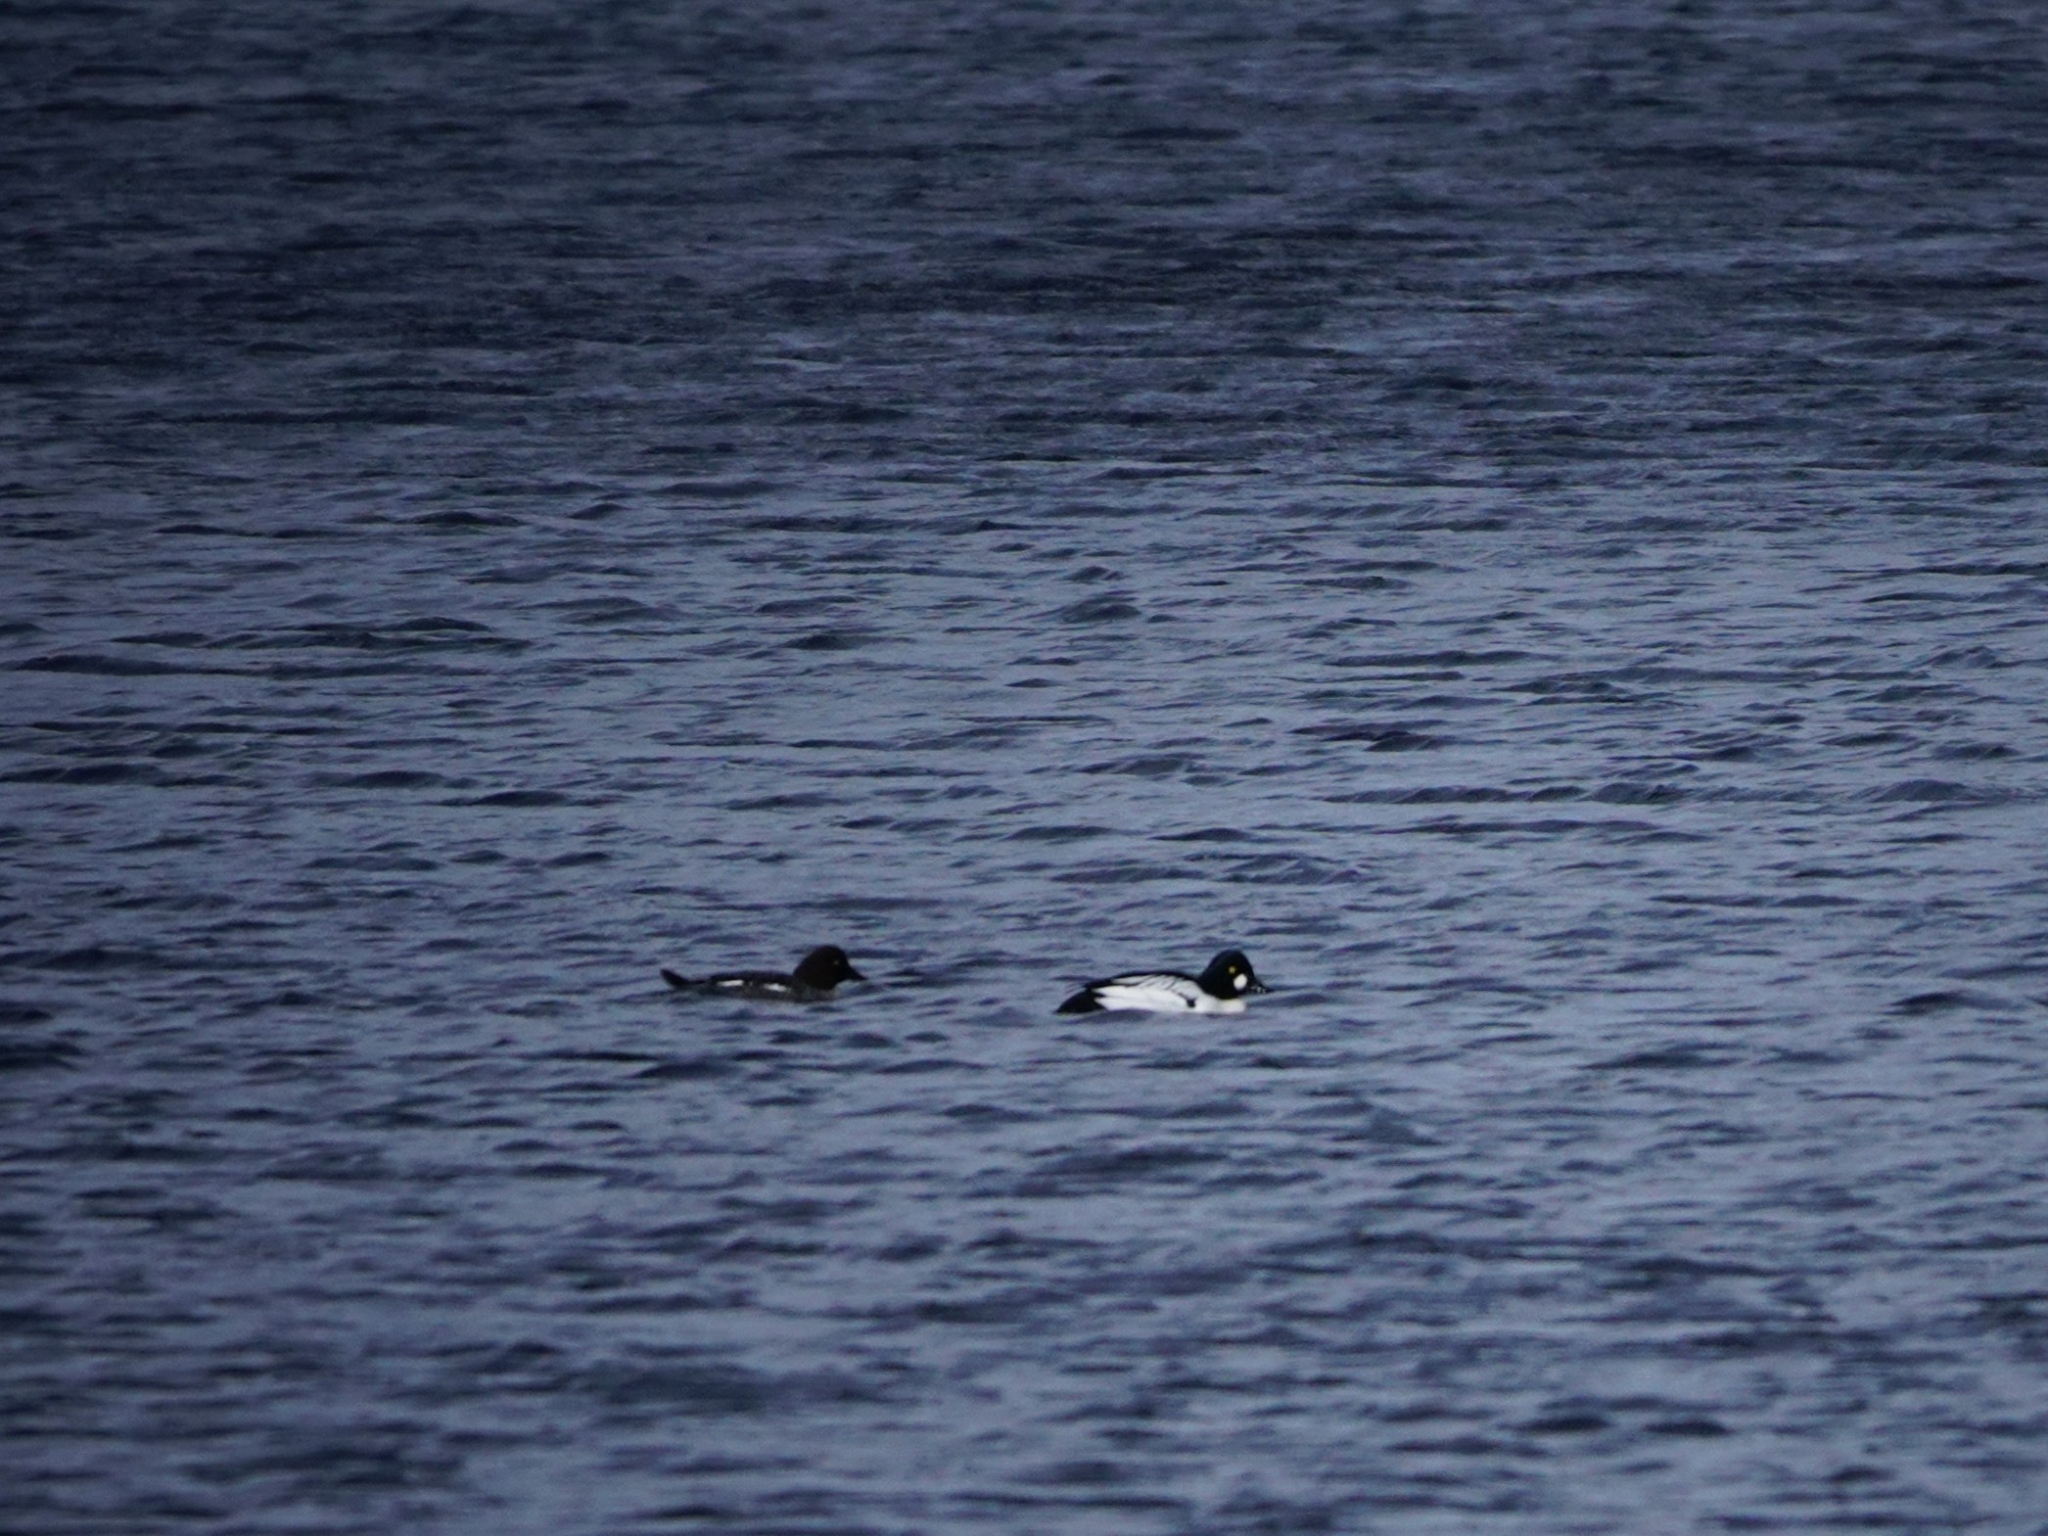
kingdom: Animalia
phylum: Chordata
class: Aves
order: Anseriformes
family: Anatidae
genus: Bucephala
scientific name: Bucephala clangula
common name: Common goldeneye
